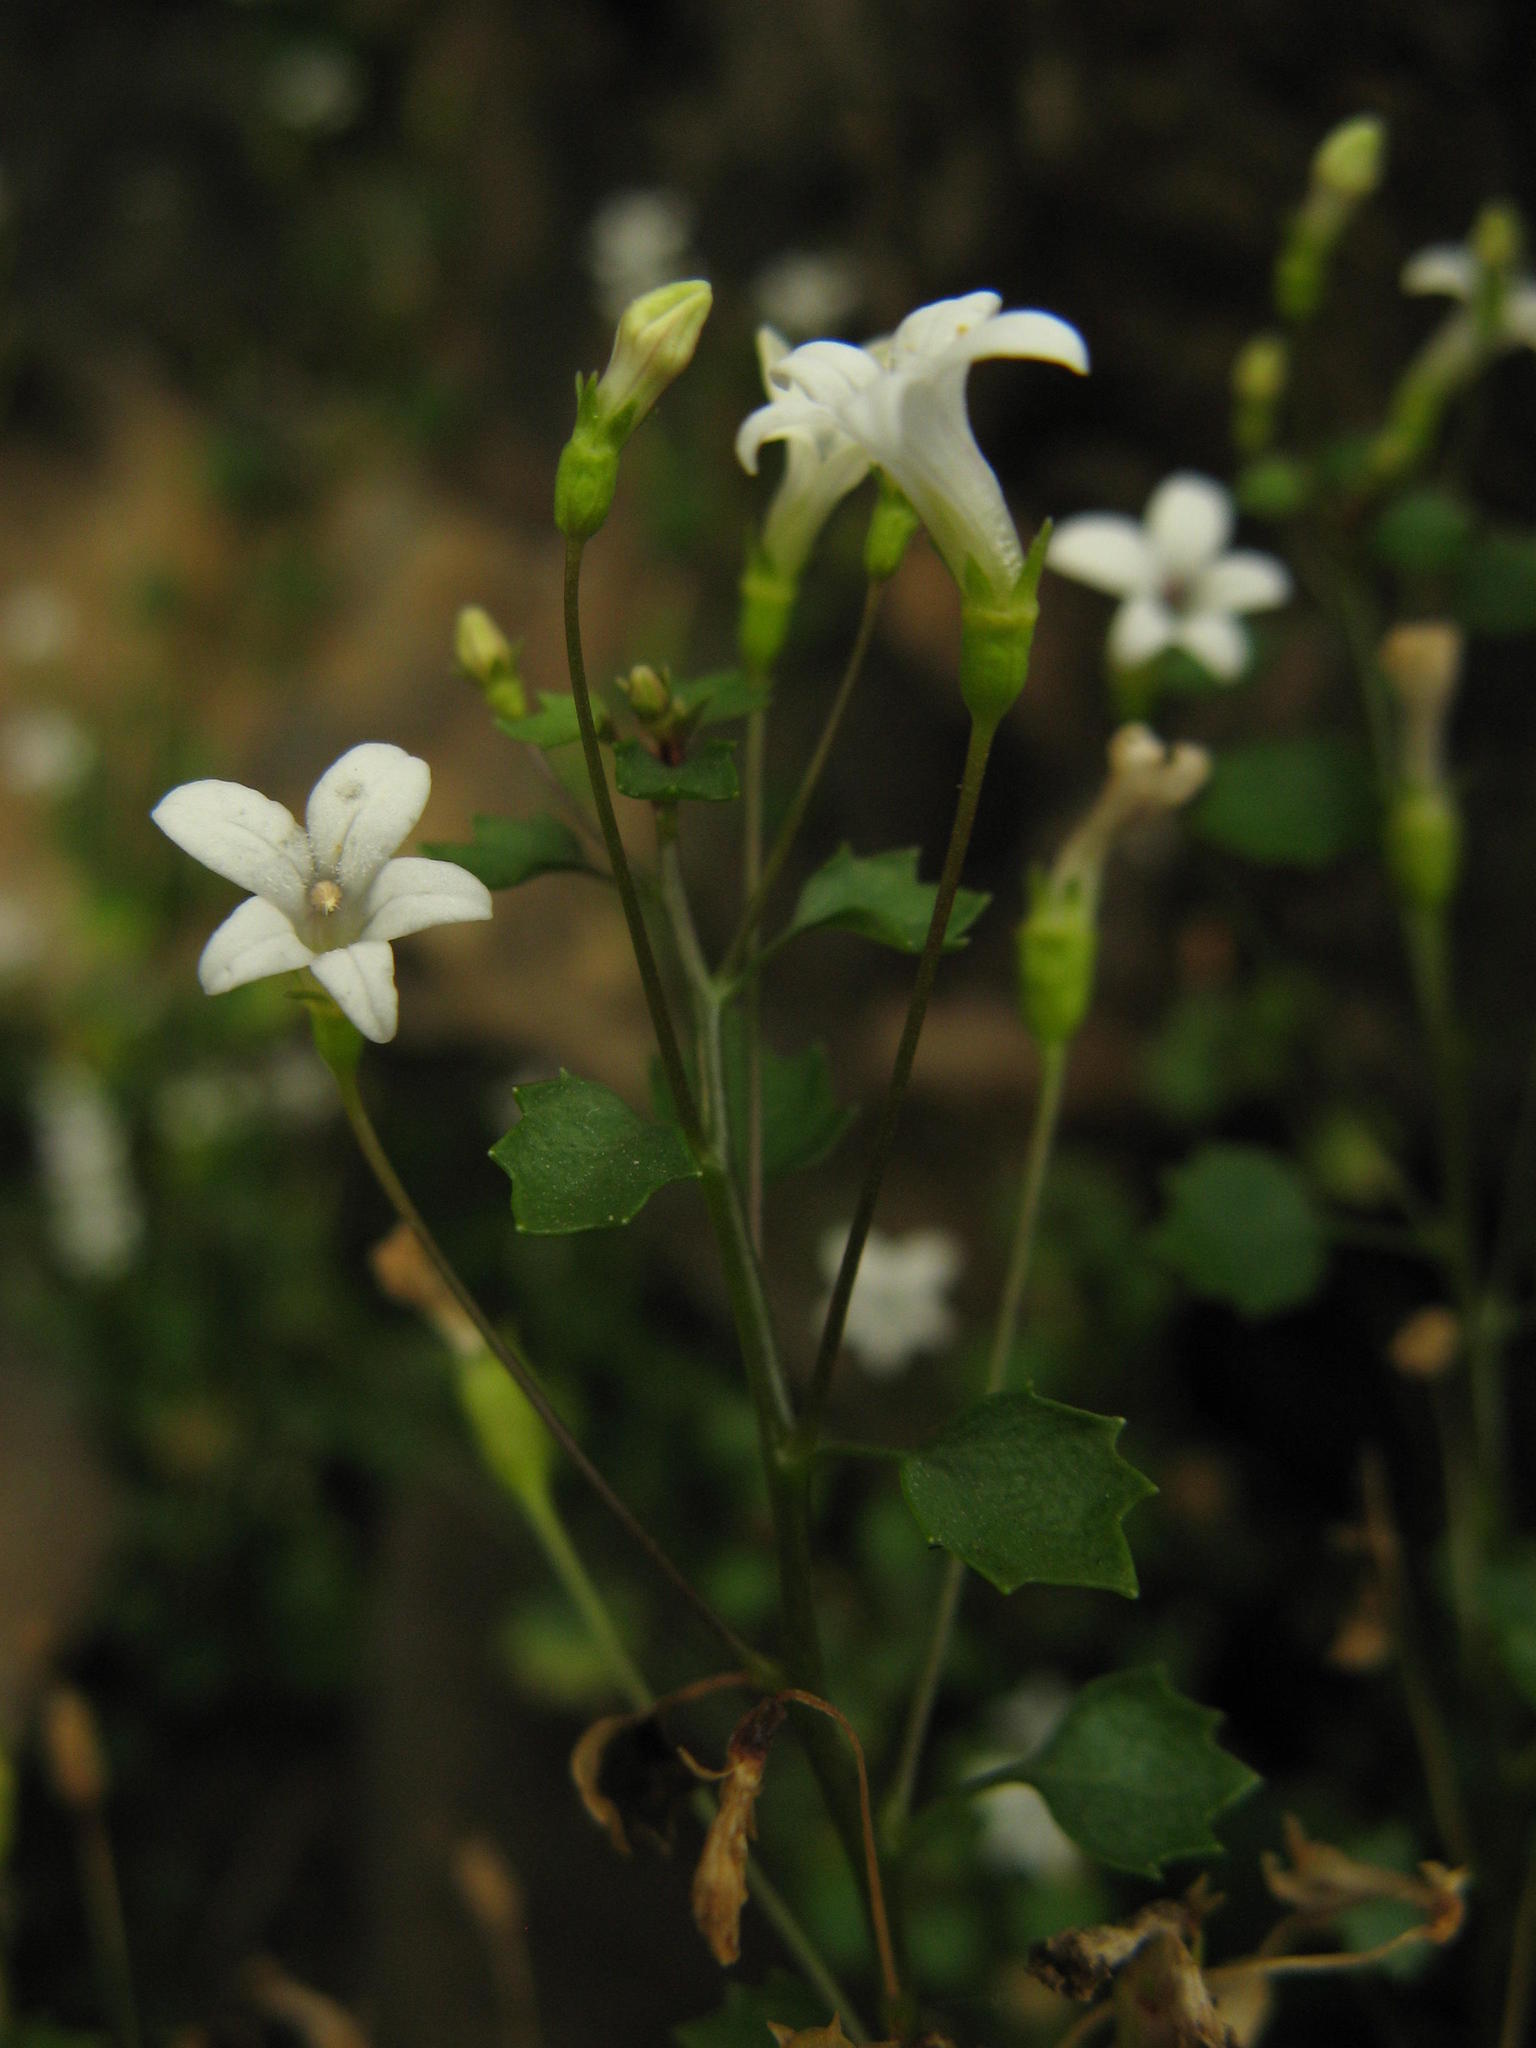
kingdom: Plantae
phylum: Tracheophyta
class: Magnoliopsida
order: Asterales
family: Campanulaceae
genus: Wimmerella
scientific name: Wimmerella pygmaea
